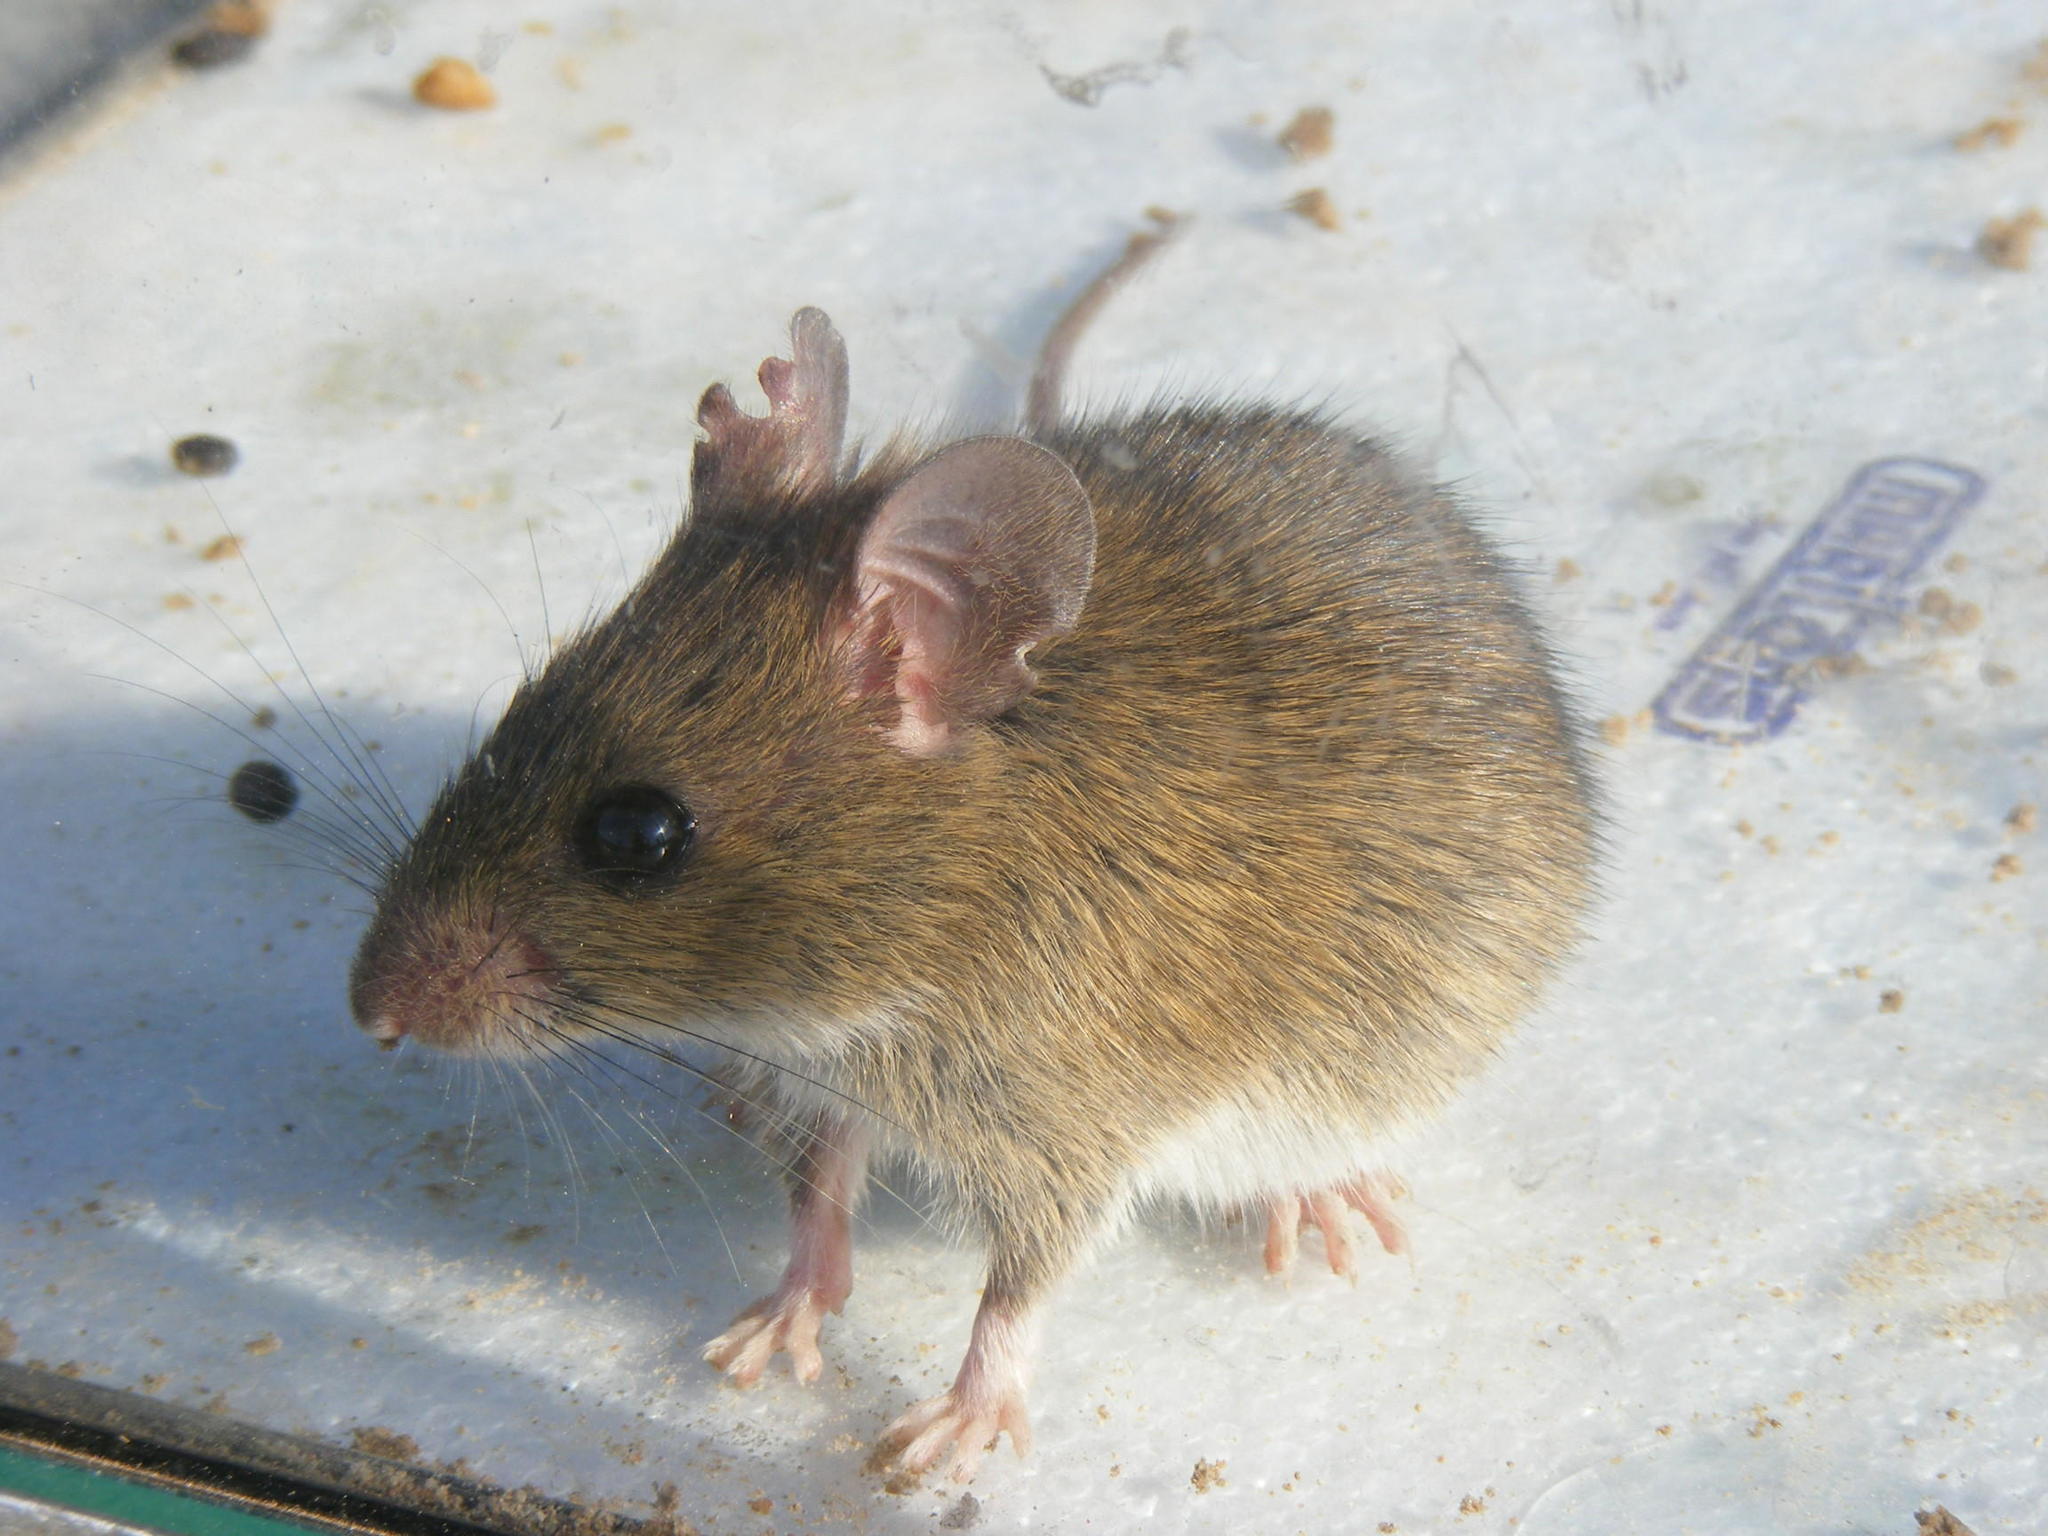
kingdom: Animalia
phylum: Chordata
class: Mammalia
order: Rodentia
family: Muridae
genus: Aethomys
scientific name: Aethomys ineptus
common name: Tete veld aethomys
